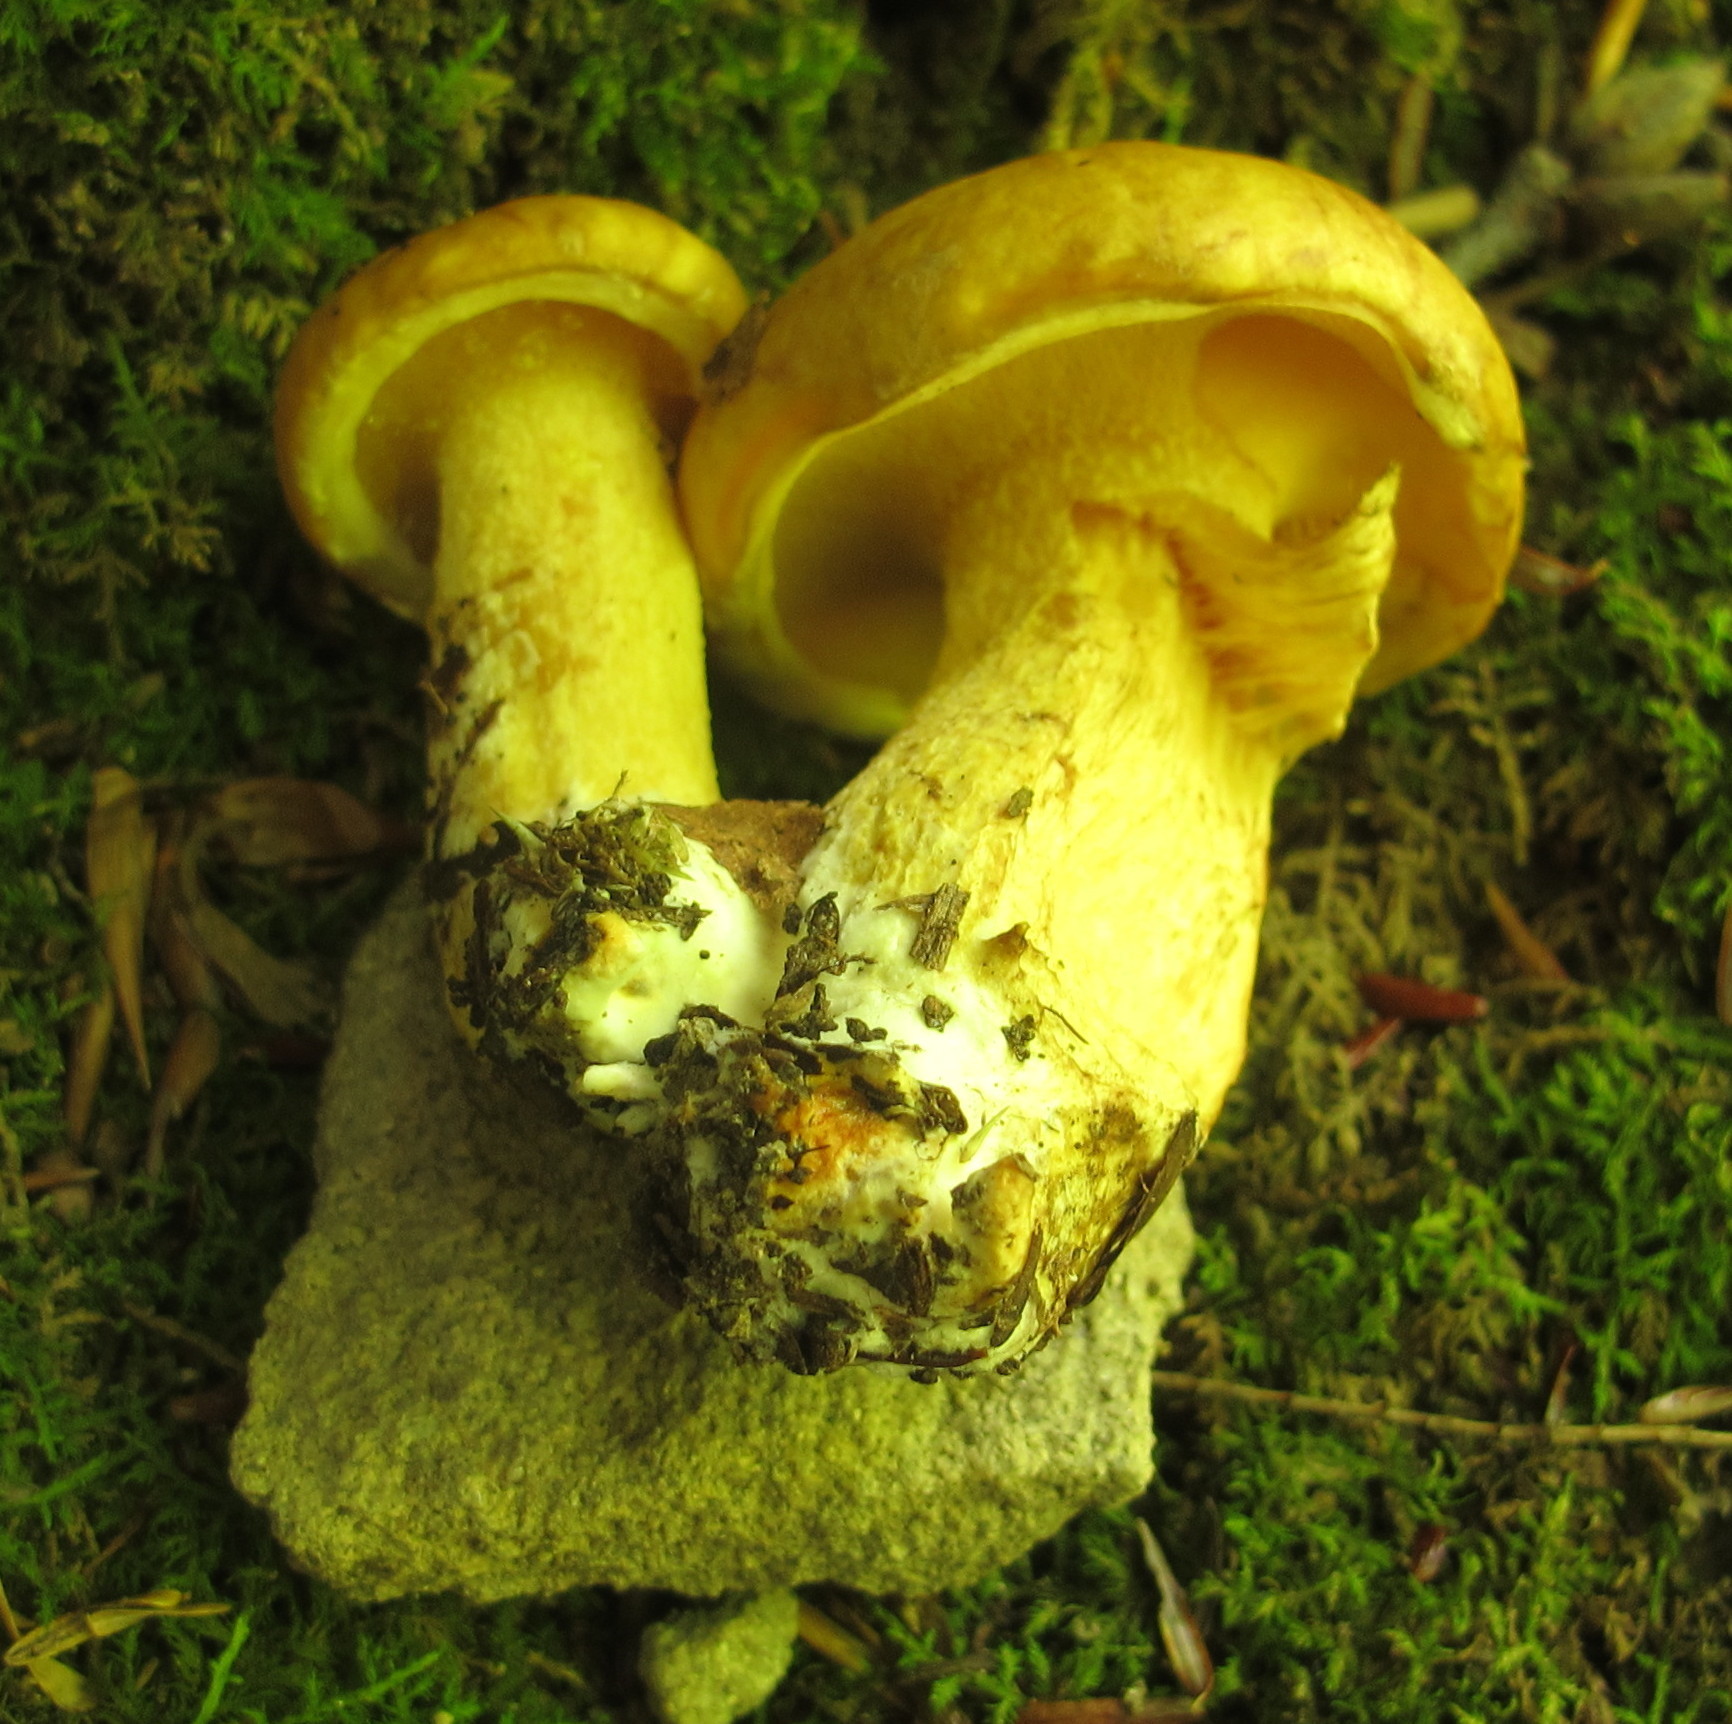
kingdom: Fungi
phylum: Basidiomycota
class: Agaricomycetes
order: Boletales
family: Suillaceae
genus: Suillus
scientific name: Suillus subaureus
